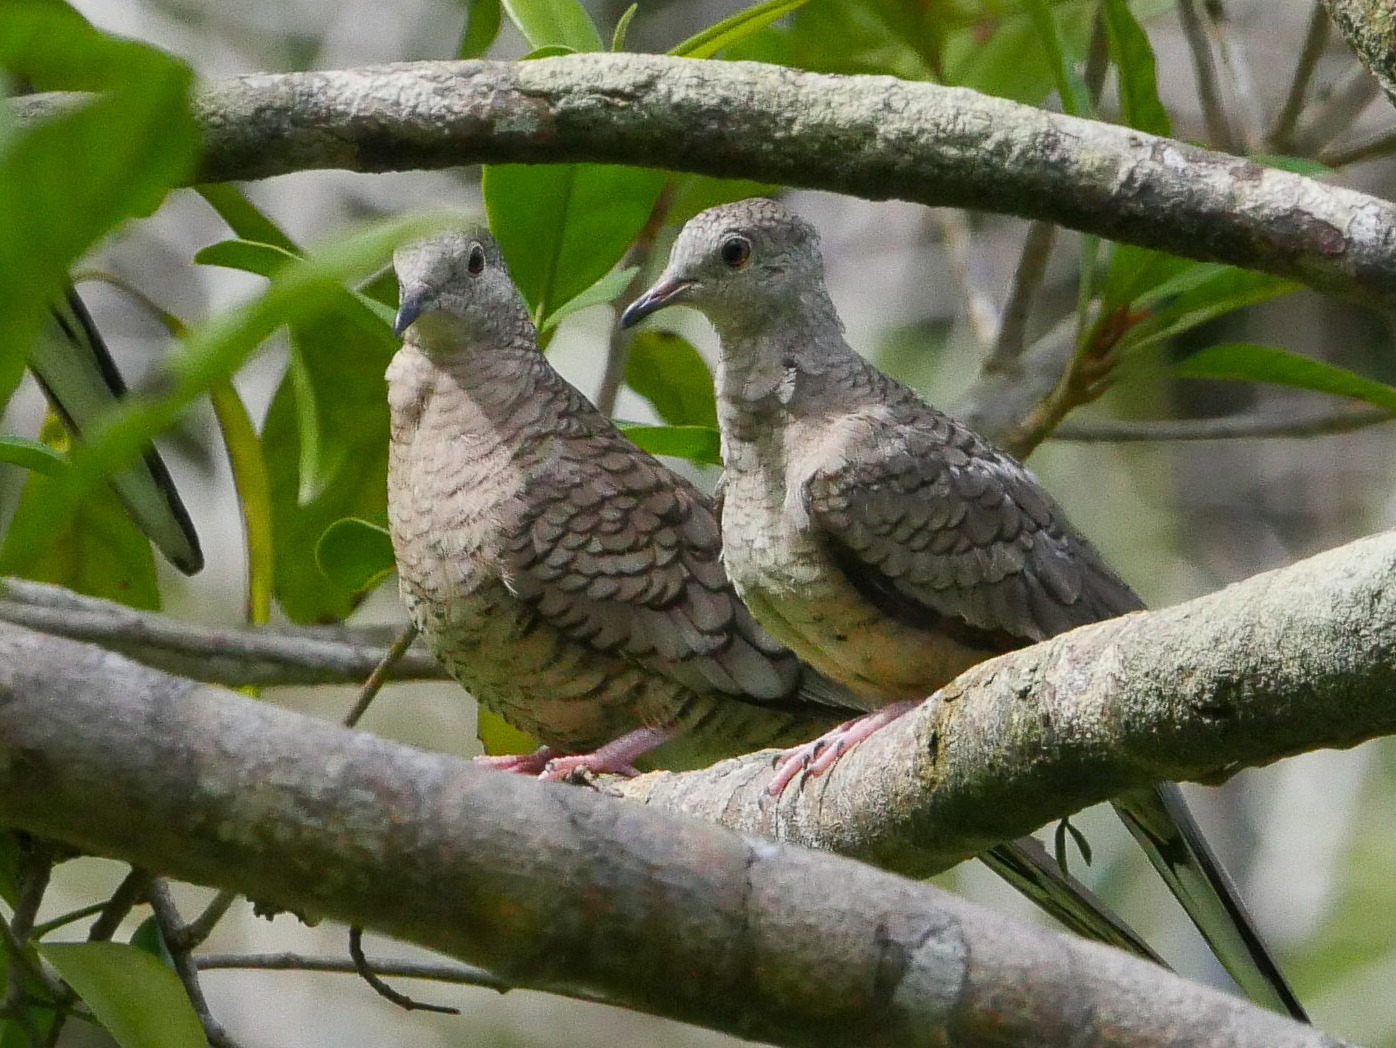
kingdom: Animalia
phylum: Chordata
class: Aves
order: Columbiformes
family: Columbidae
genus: Columbina
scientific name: Columbina inca
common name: Inca dove
